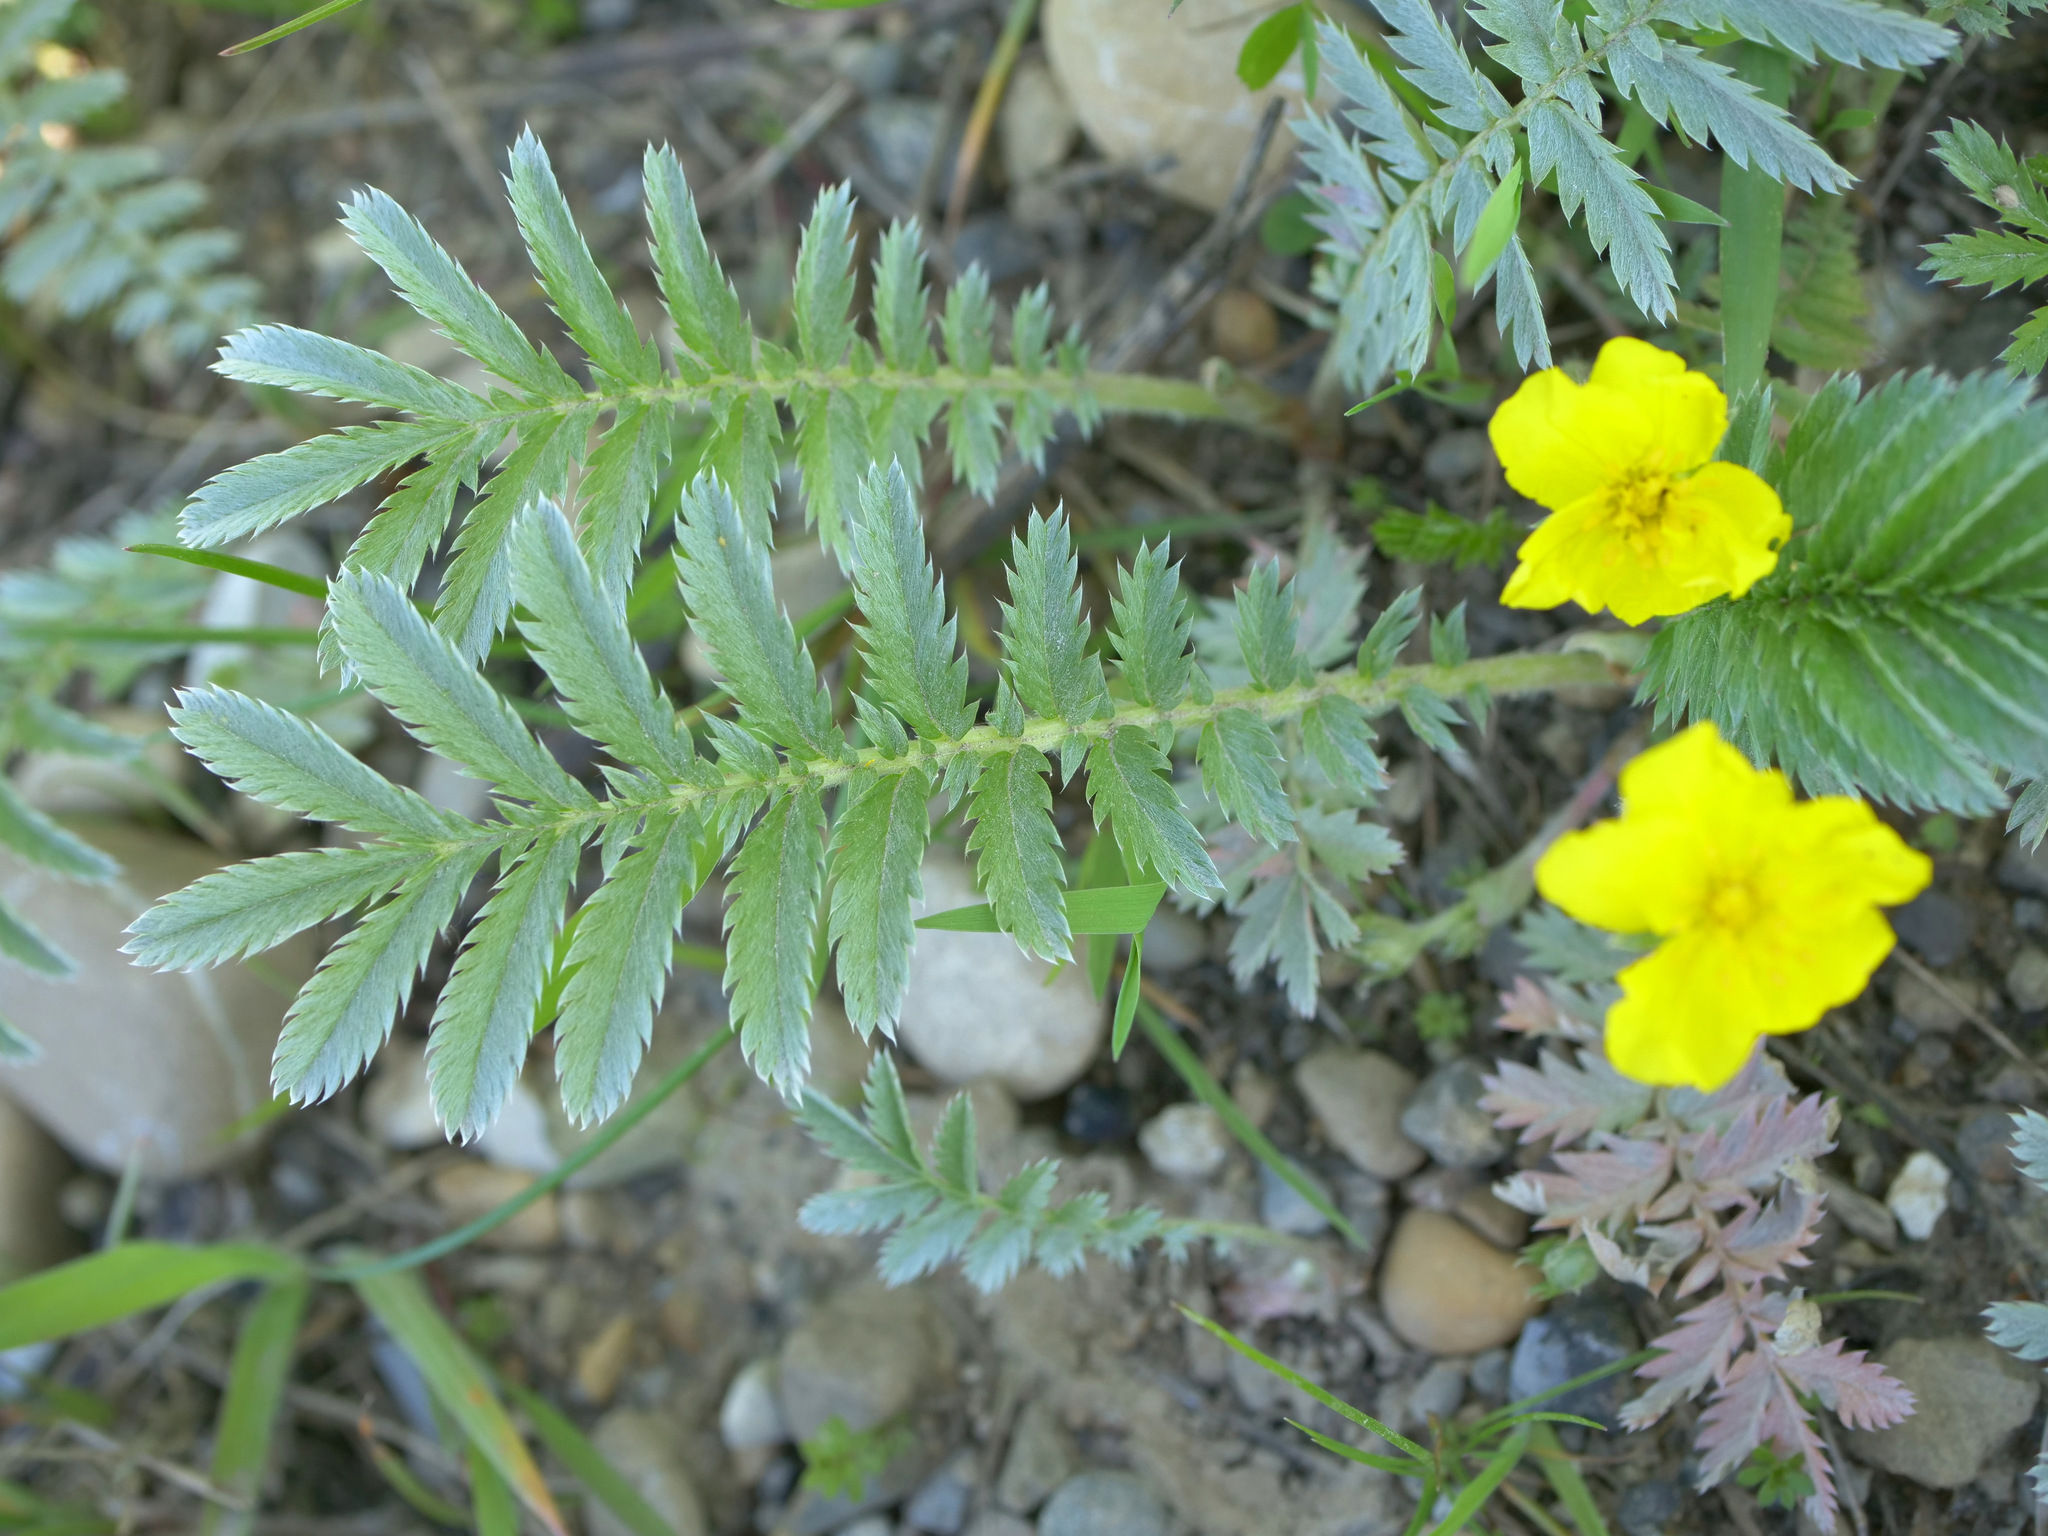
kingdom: Plantae
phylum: Tracheophyta
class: Magnoliopsida
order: Rosales
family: Rosaceae
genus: Argentina
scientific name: Argentina anserina
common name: Common silverweed
